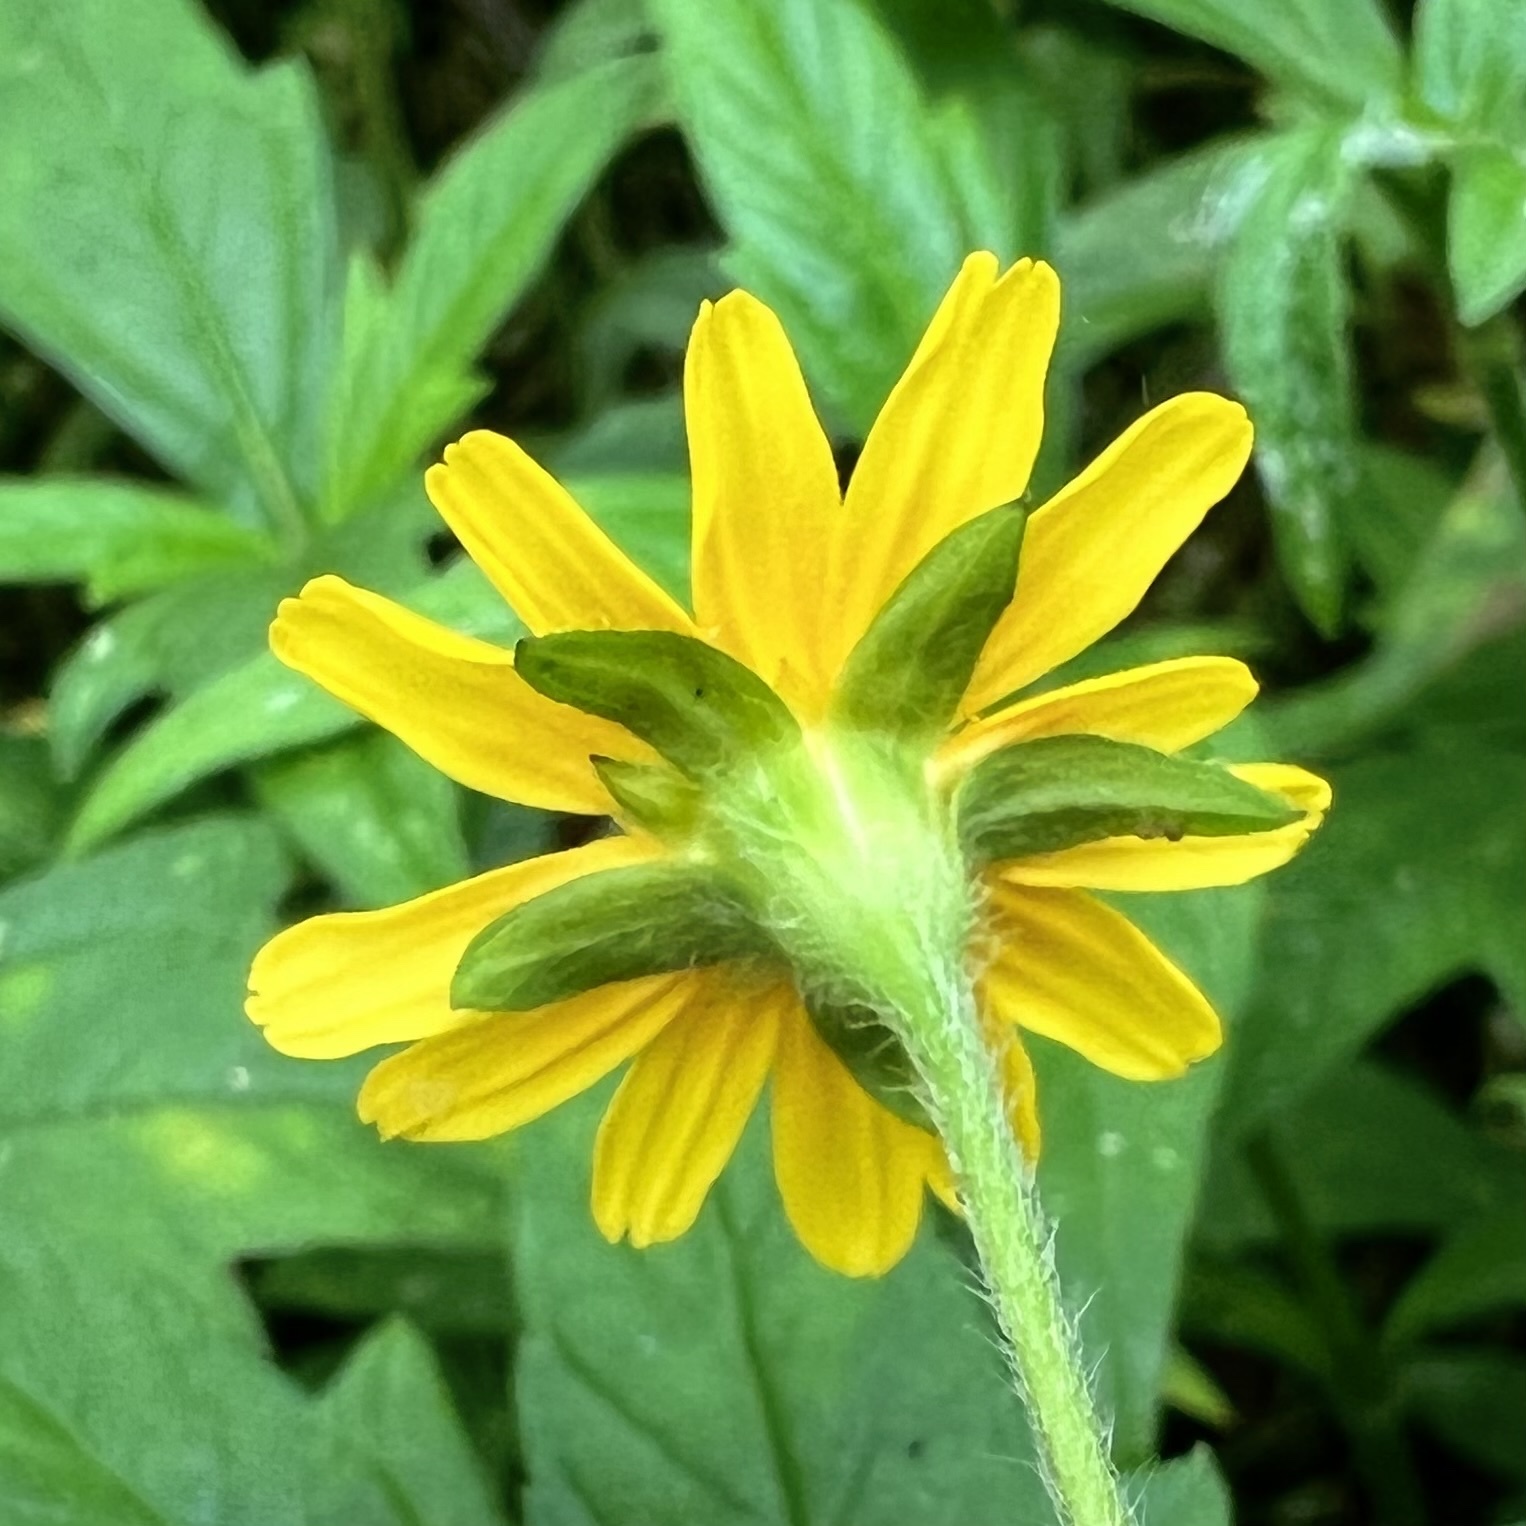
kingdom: Plantae
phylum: Tracheophyta
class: Magnoliopsida
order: Asterales
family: Asteraceae
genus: Sphagneticola
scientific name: Sphagneticola trilobata
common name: Bay biscayne creeping-oxeye
